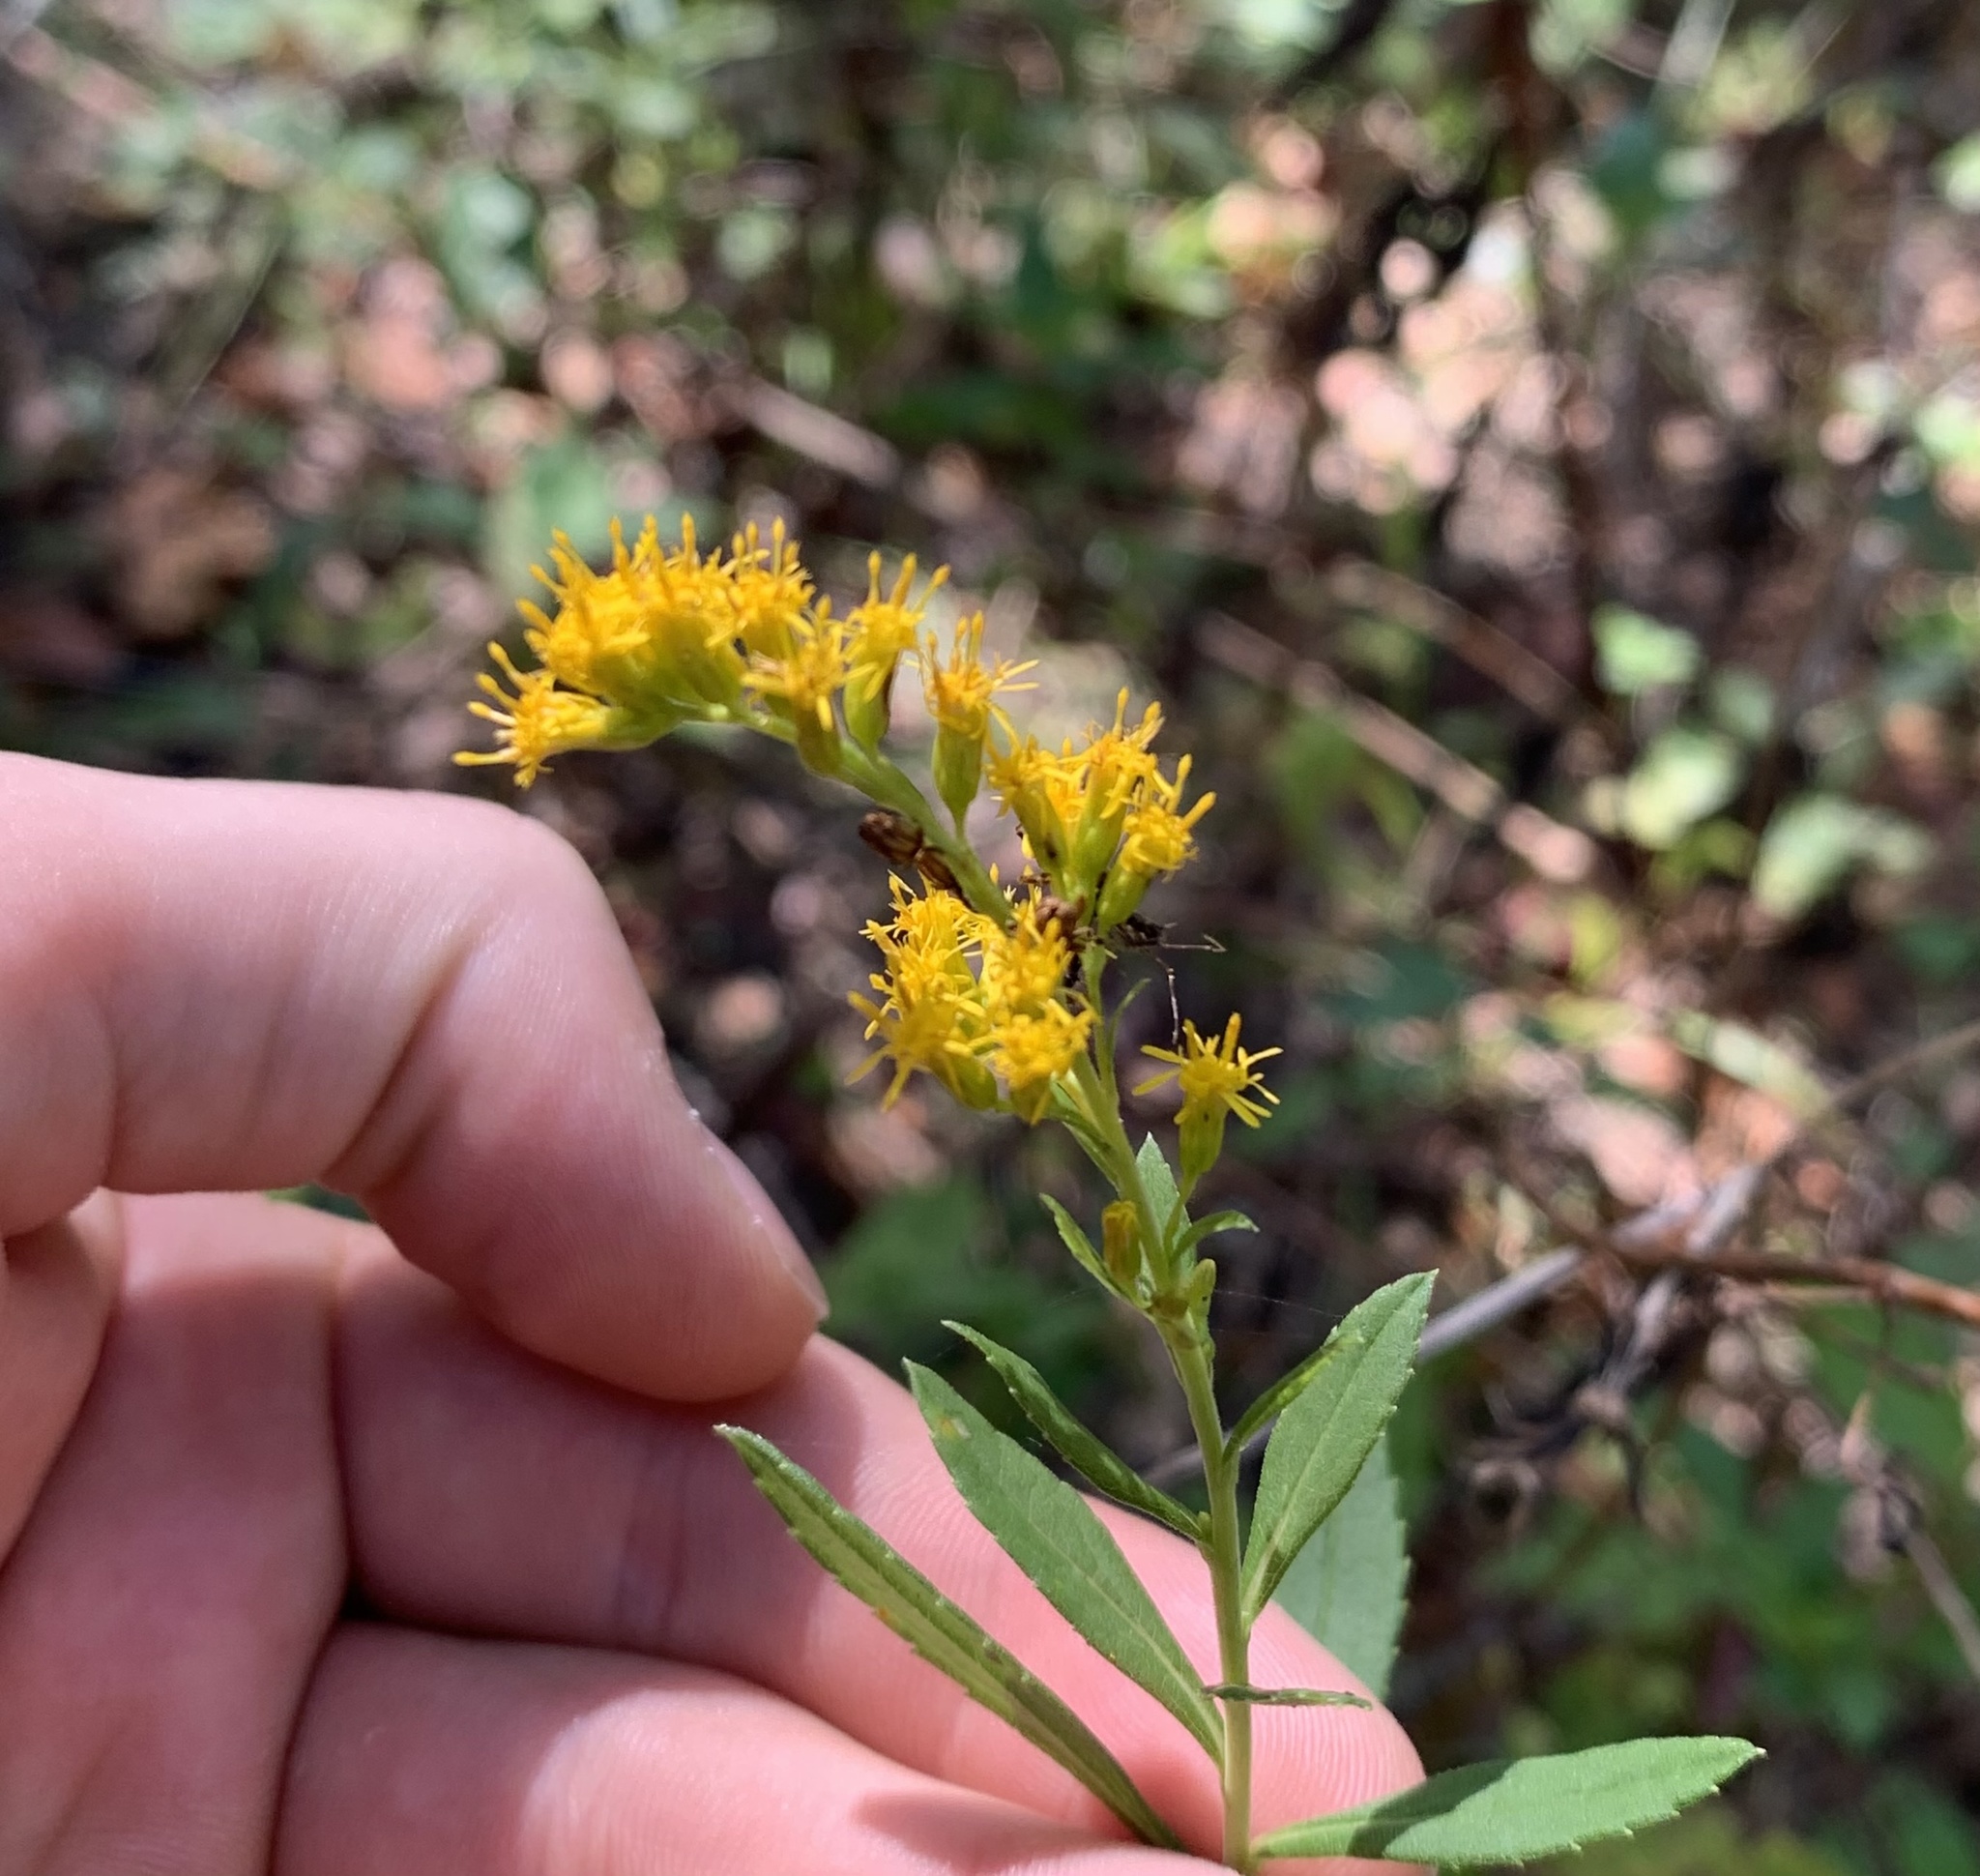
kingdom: Plantae
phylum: Tracheophyta
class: Magnoliopsida
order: Asterales
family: Asteraceae
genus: Solidago
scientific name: Solidago leavenworthii
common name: Leavenworth's goldenrod
